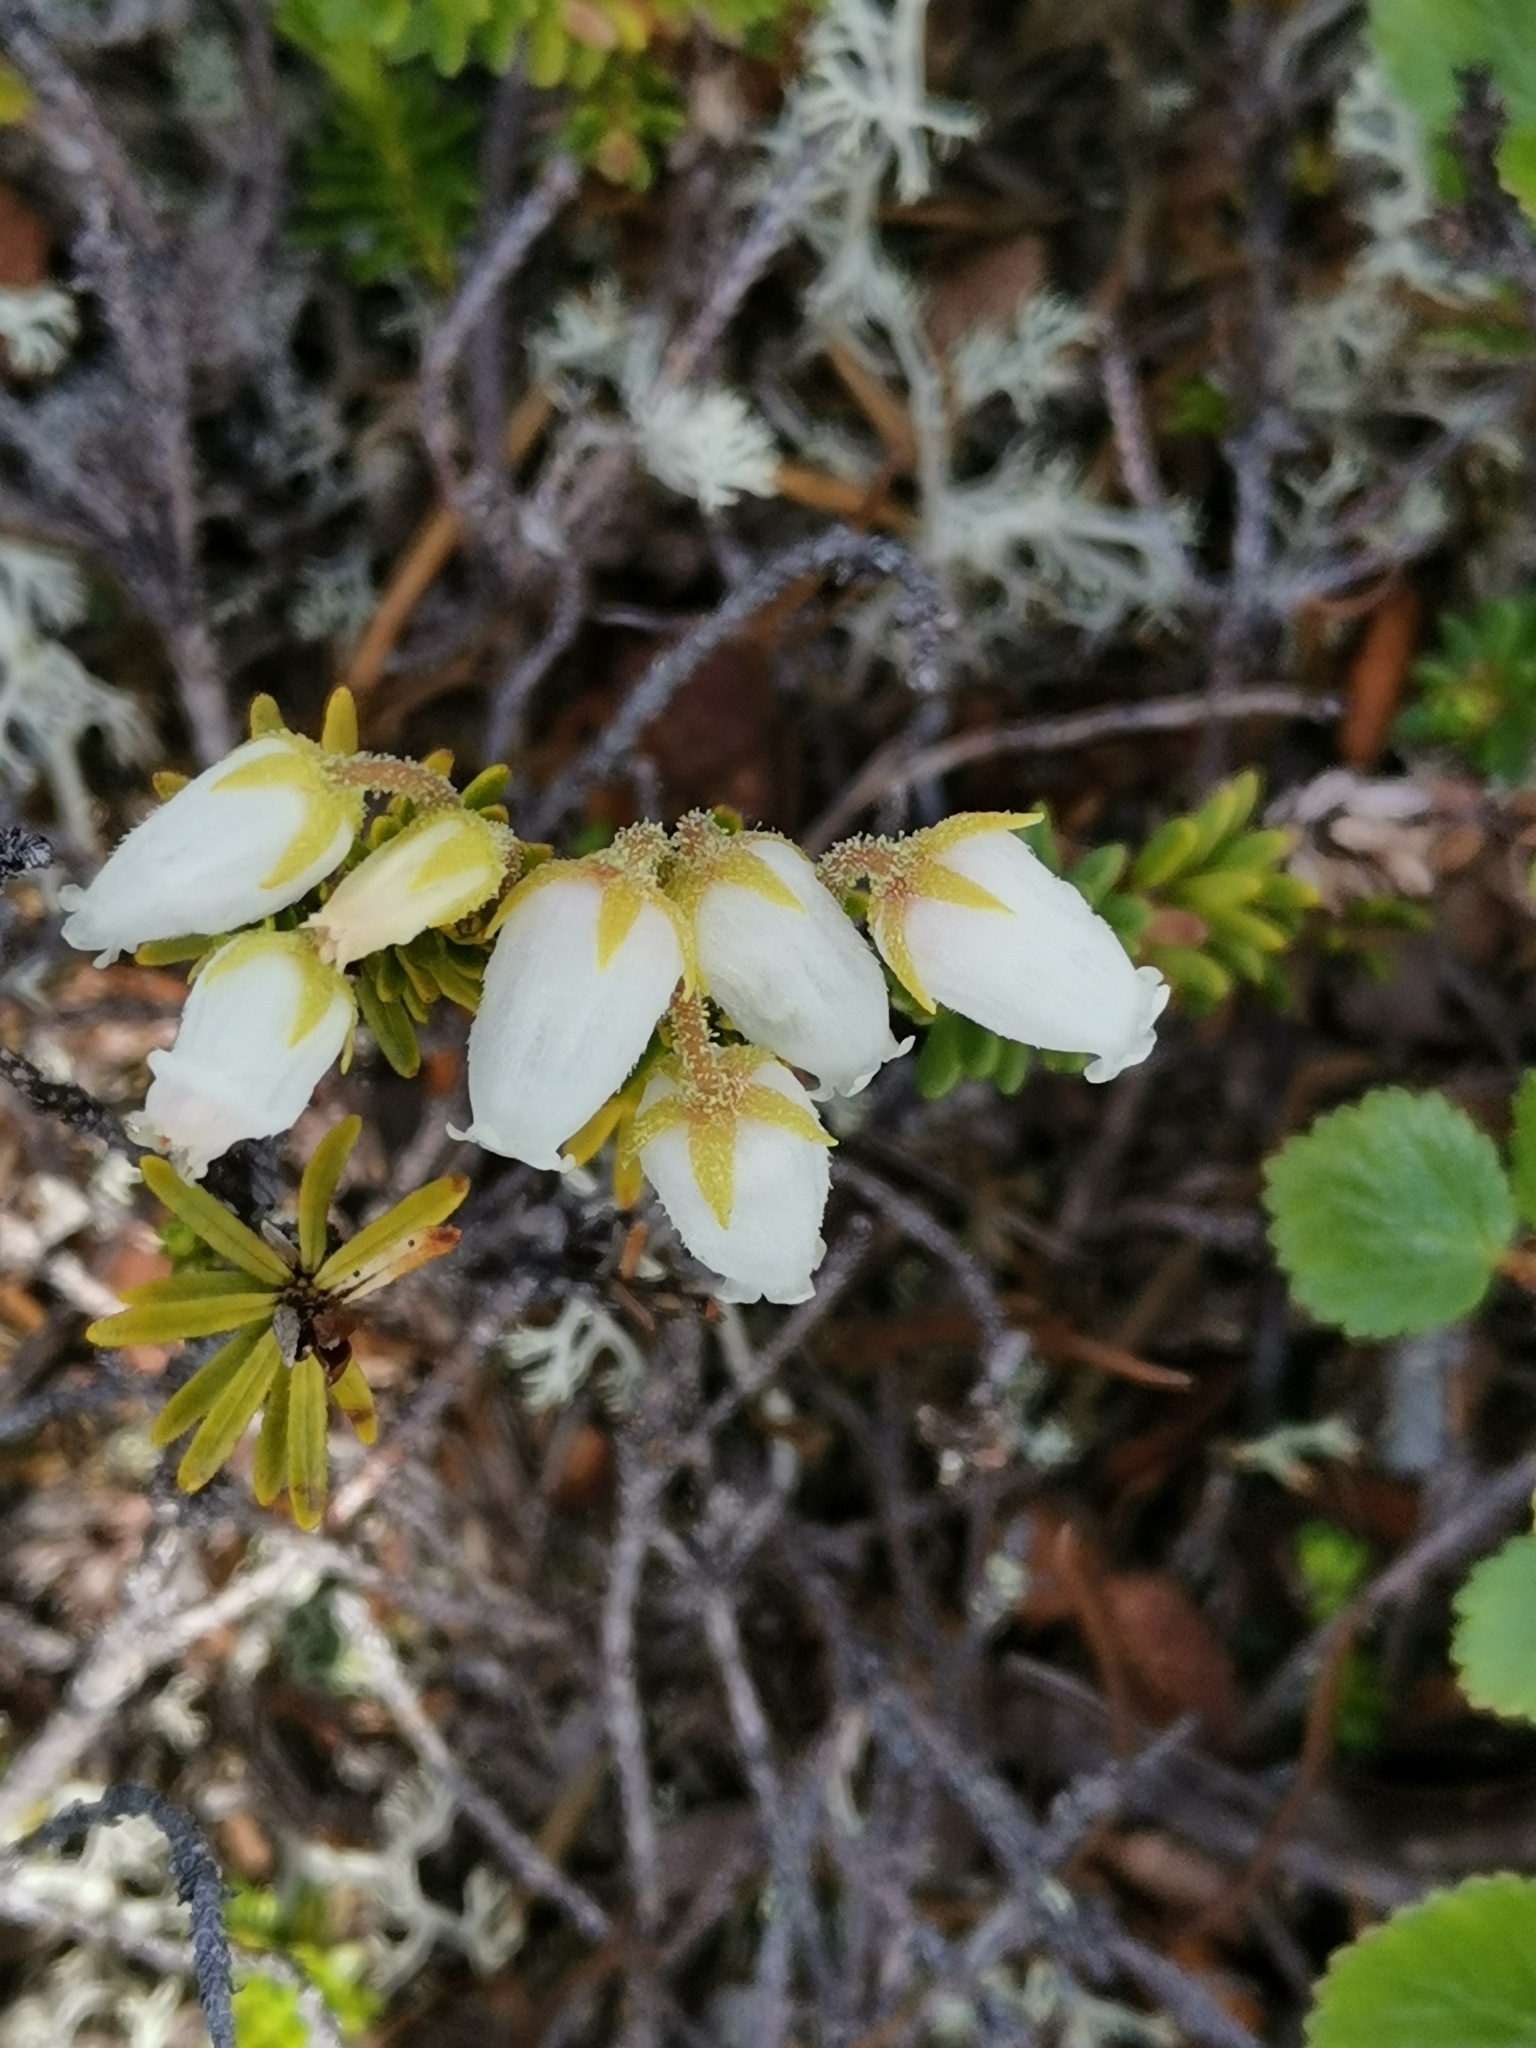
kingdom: Plantae
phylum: Tracheophyta
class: Magnoliopsida
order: Ericales
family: Ericaceae
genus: Phyllodoce
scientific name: Phyllodoce caerulea
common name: Blue heath
